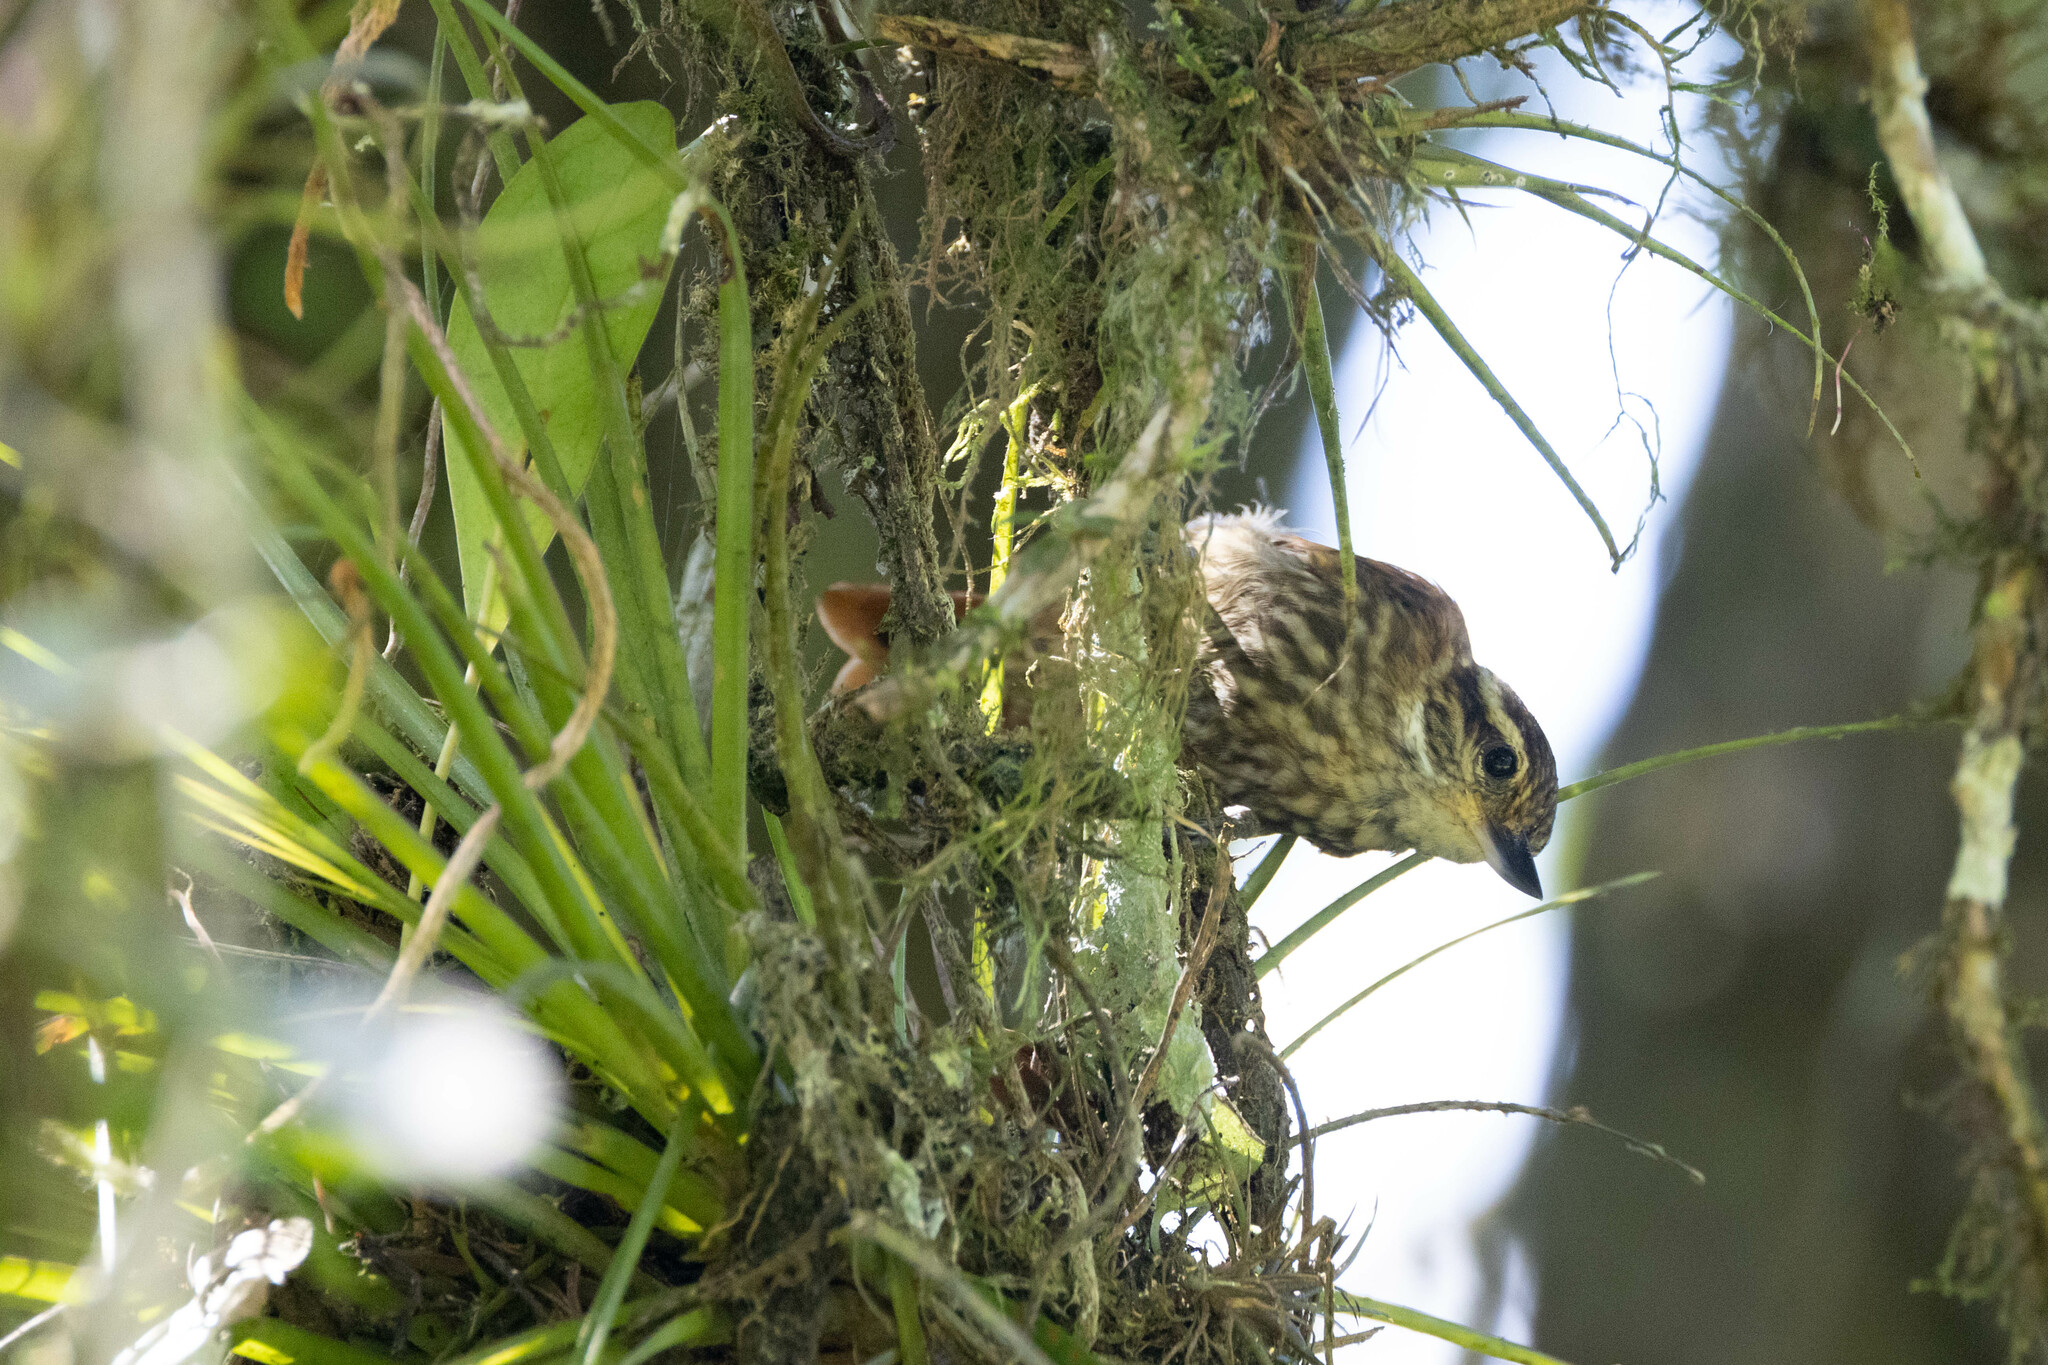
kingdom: Animalia
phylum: Chordata
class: Aves
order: Passeriformes
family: Furnariidae
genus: Xenops
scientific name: Xenops rutilans
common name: Streaked xenops
